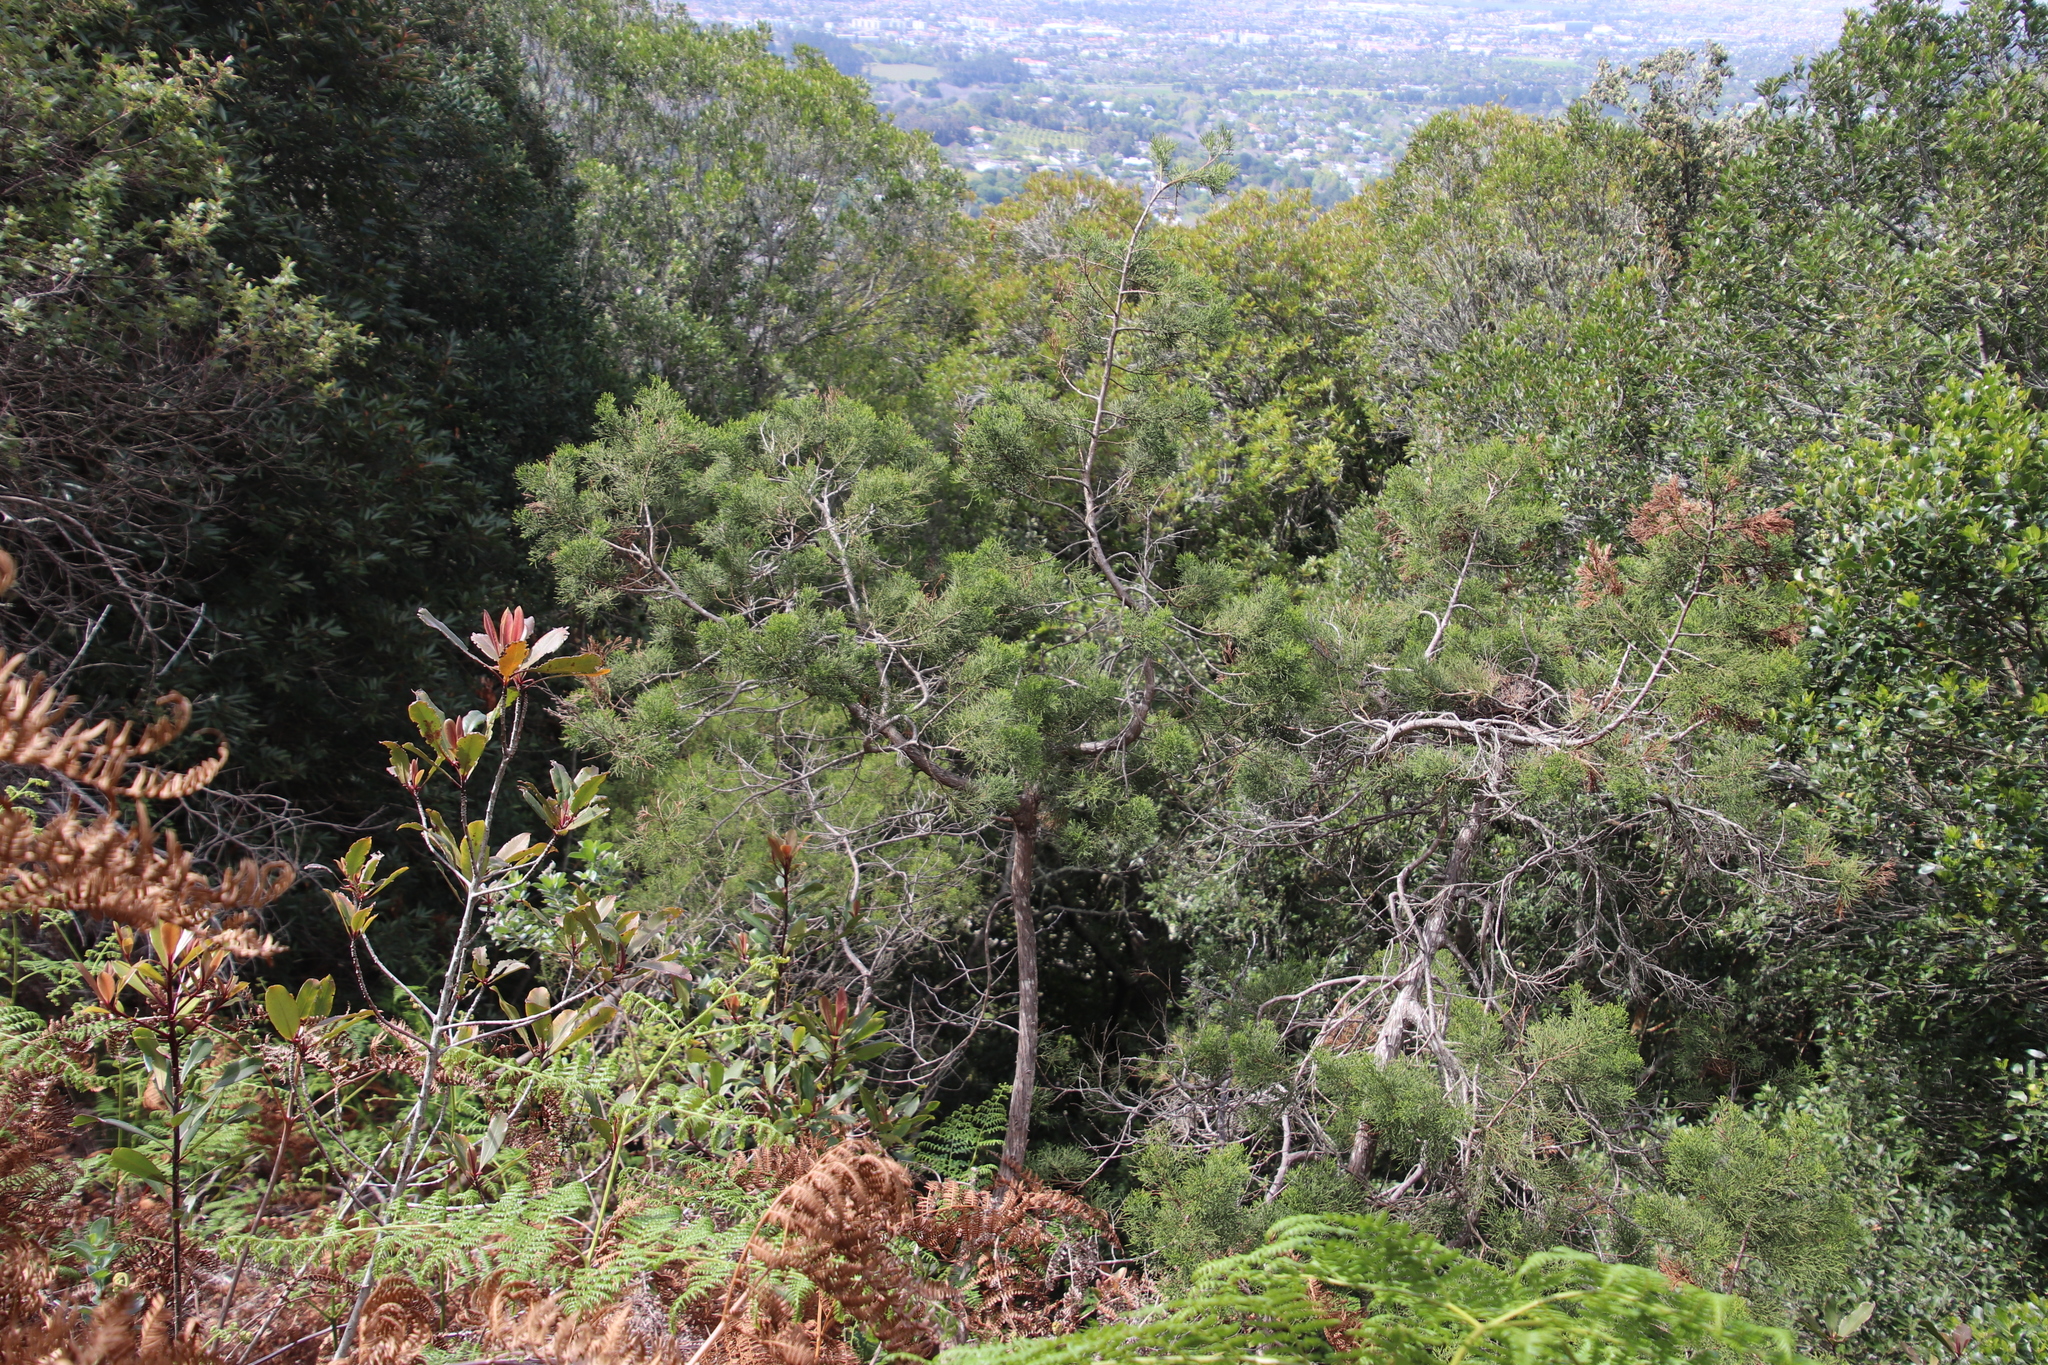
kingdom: Plantae
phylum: Tracheophyta
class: Pinopsida
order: Pinales
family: Cupressaceae
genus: Widdringtonia
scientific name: Widdringtonia nodiflora
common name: Cape cypress
